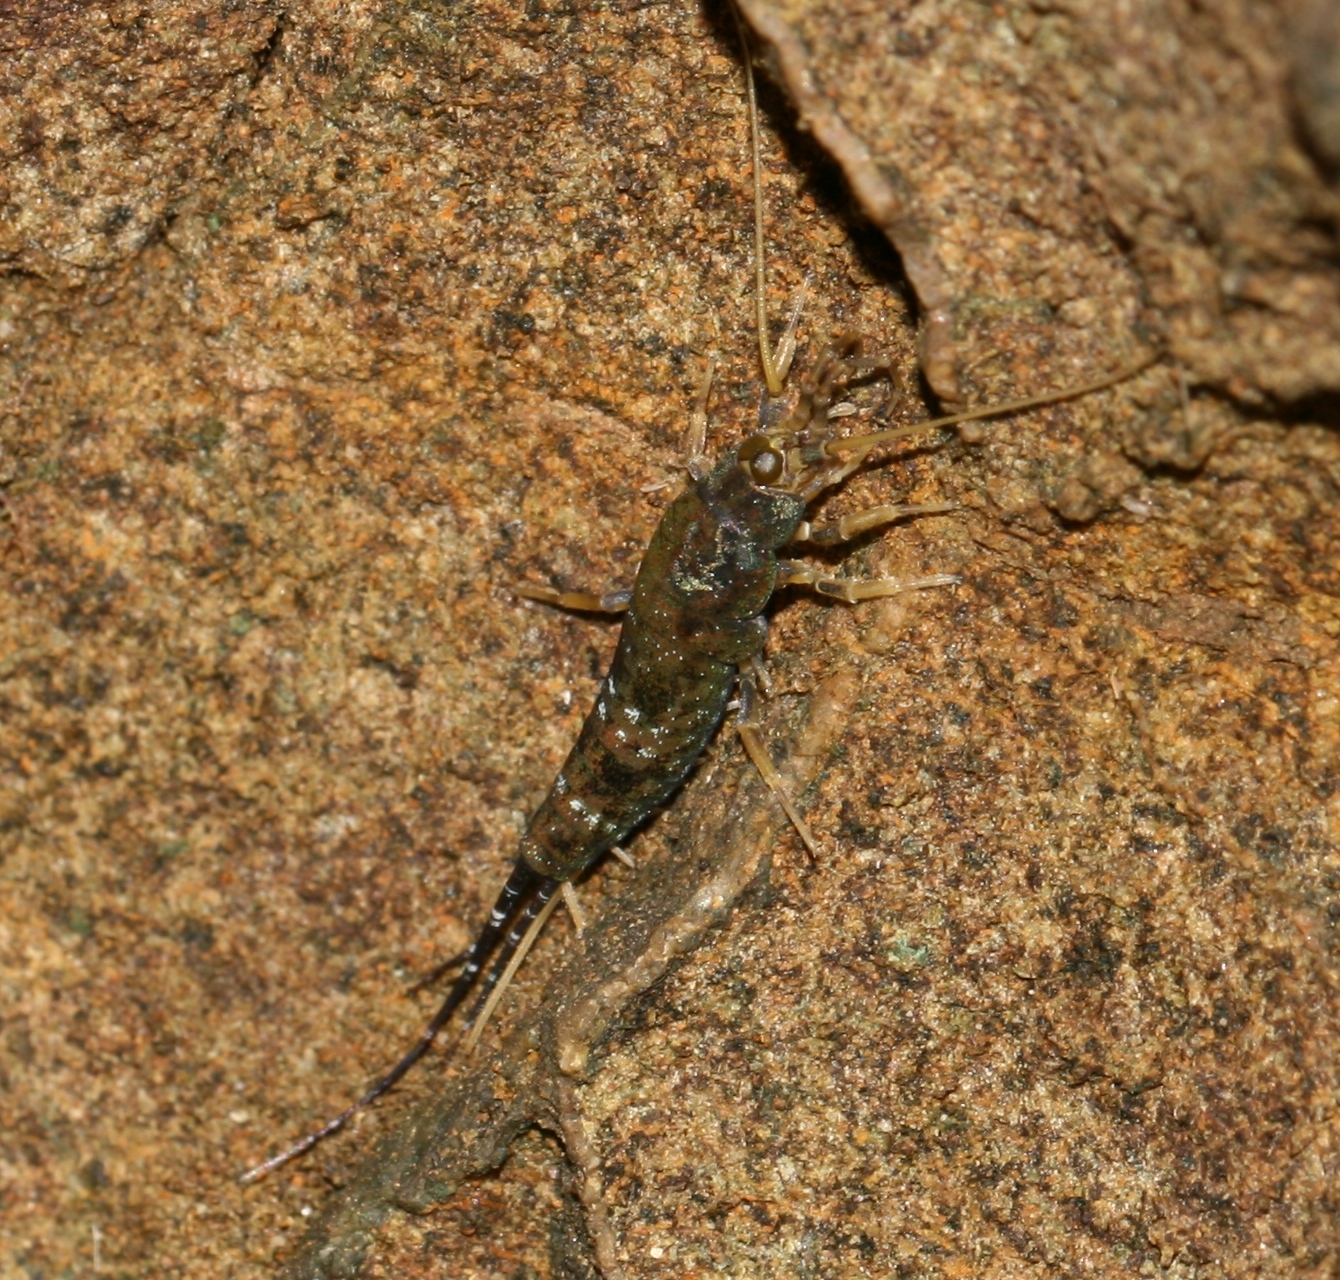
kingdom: Animalia
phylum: Arthropoda
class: Insecta
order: Archaeognatha
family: Machilidae
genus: Petrobius
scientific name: Petrobius brevistylis
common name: Jumping bristletail
